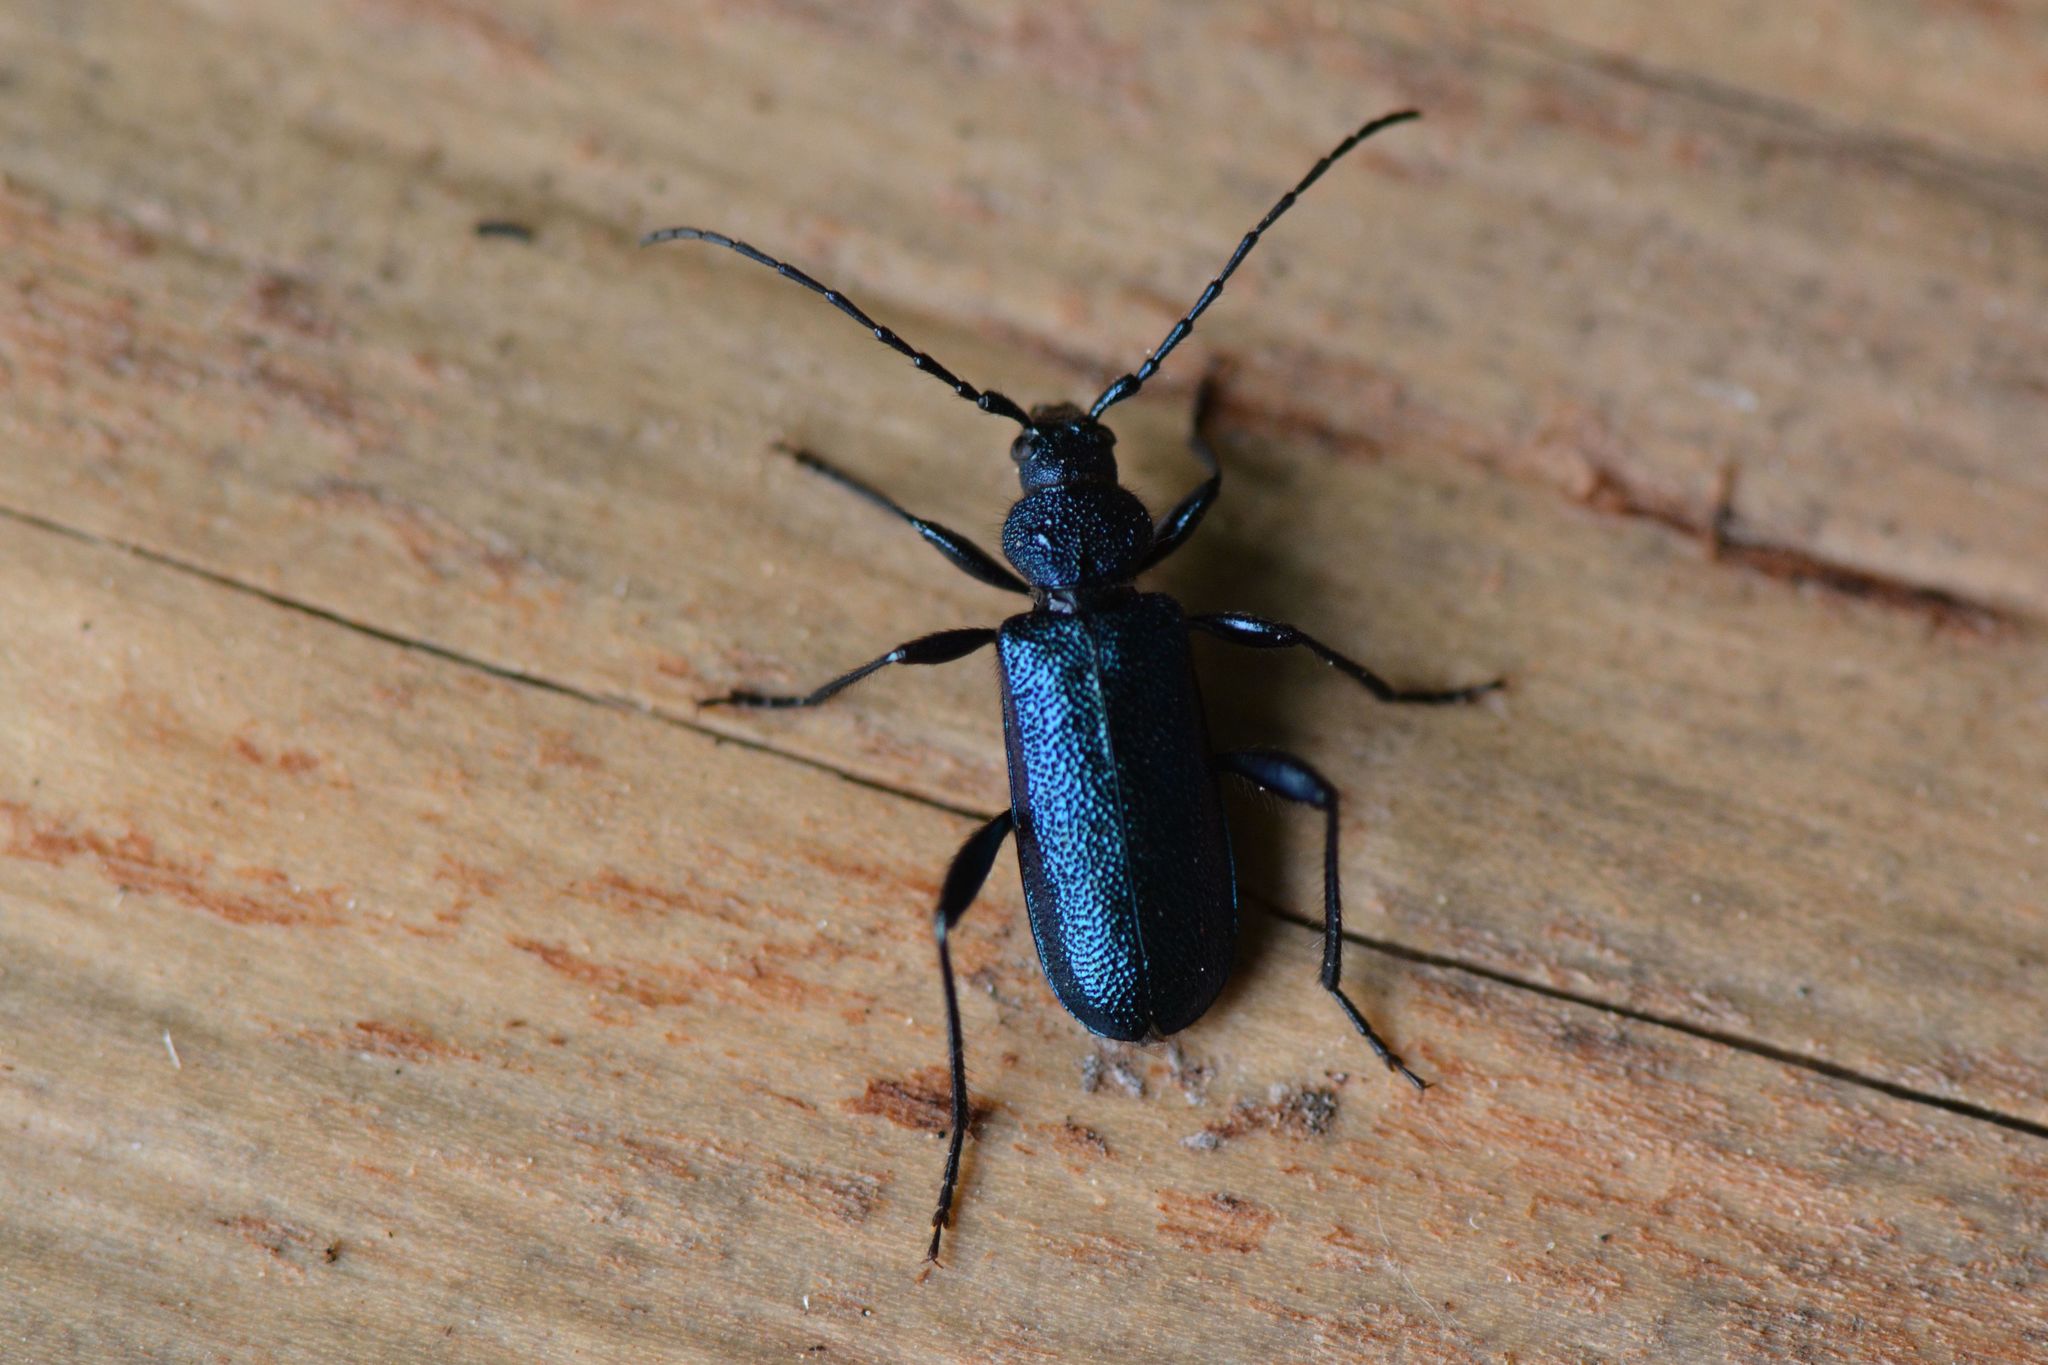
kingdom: Animalia
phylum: Arthropoda
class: Insecta
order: Coleoptera
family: Cerambycidae
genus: Callidium
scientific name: Callidium violaceum
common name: Violet tanbark beetle
